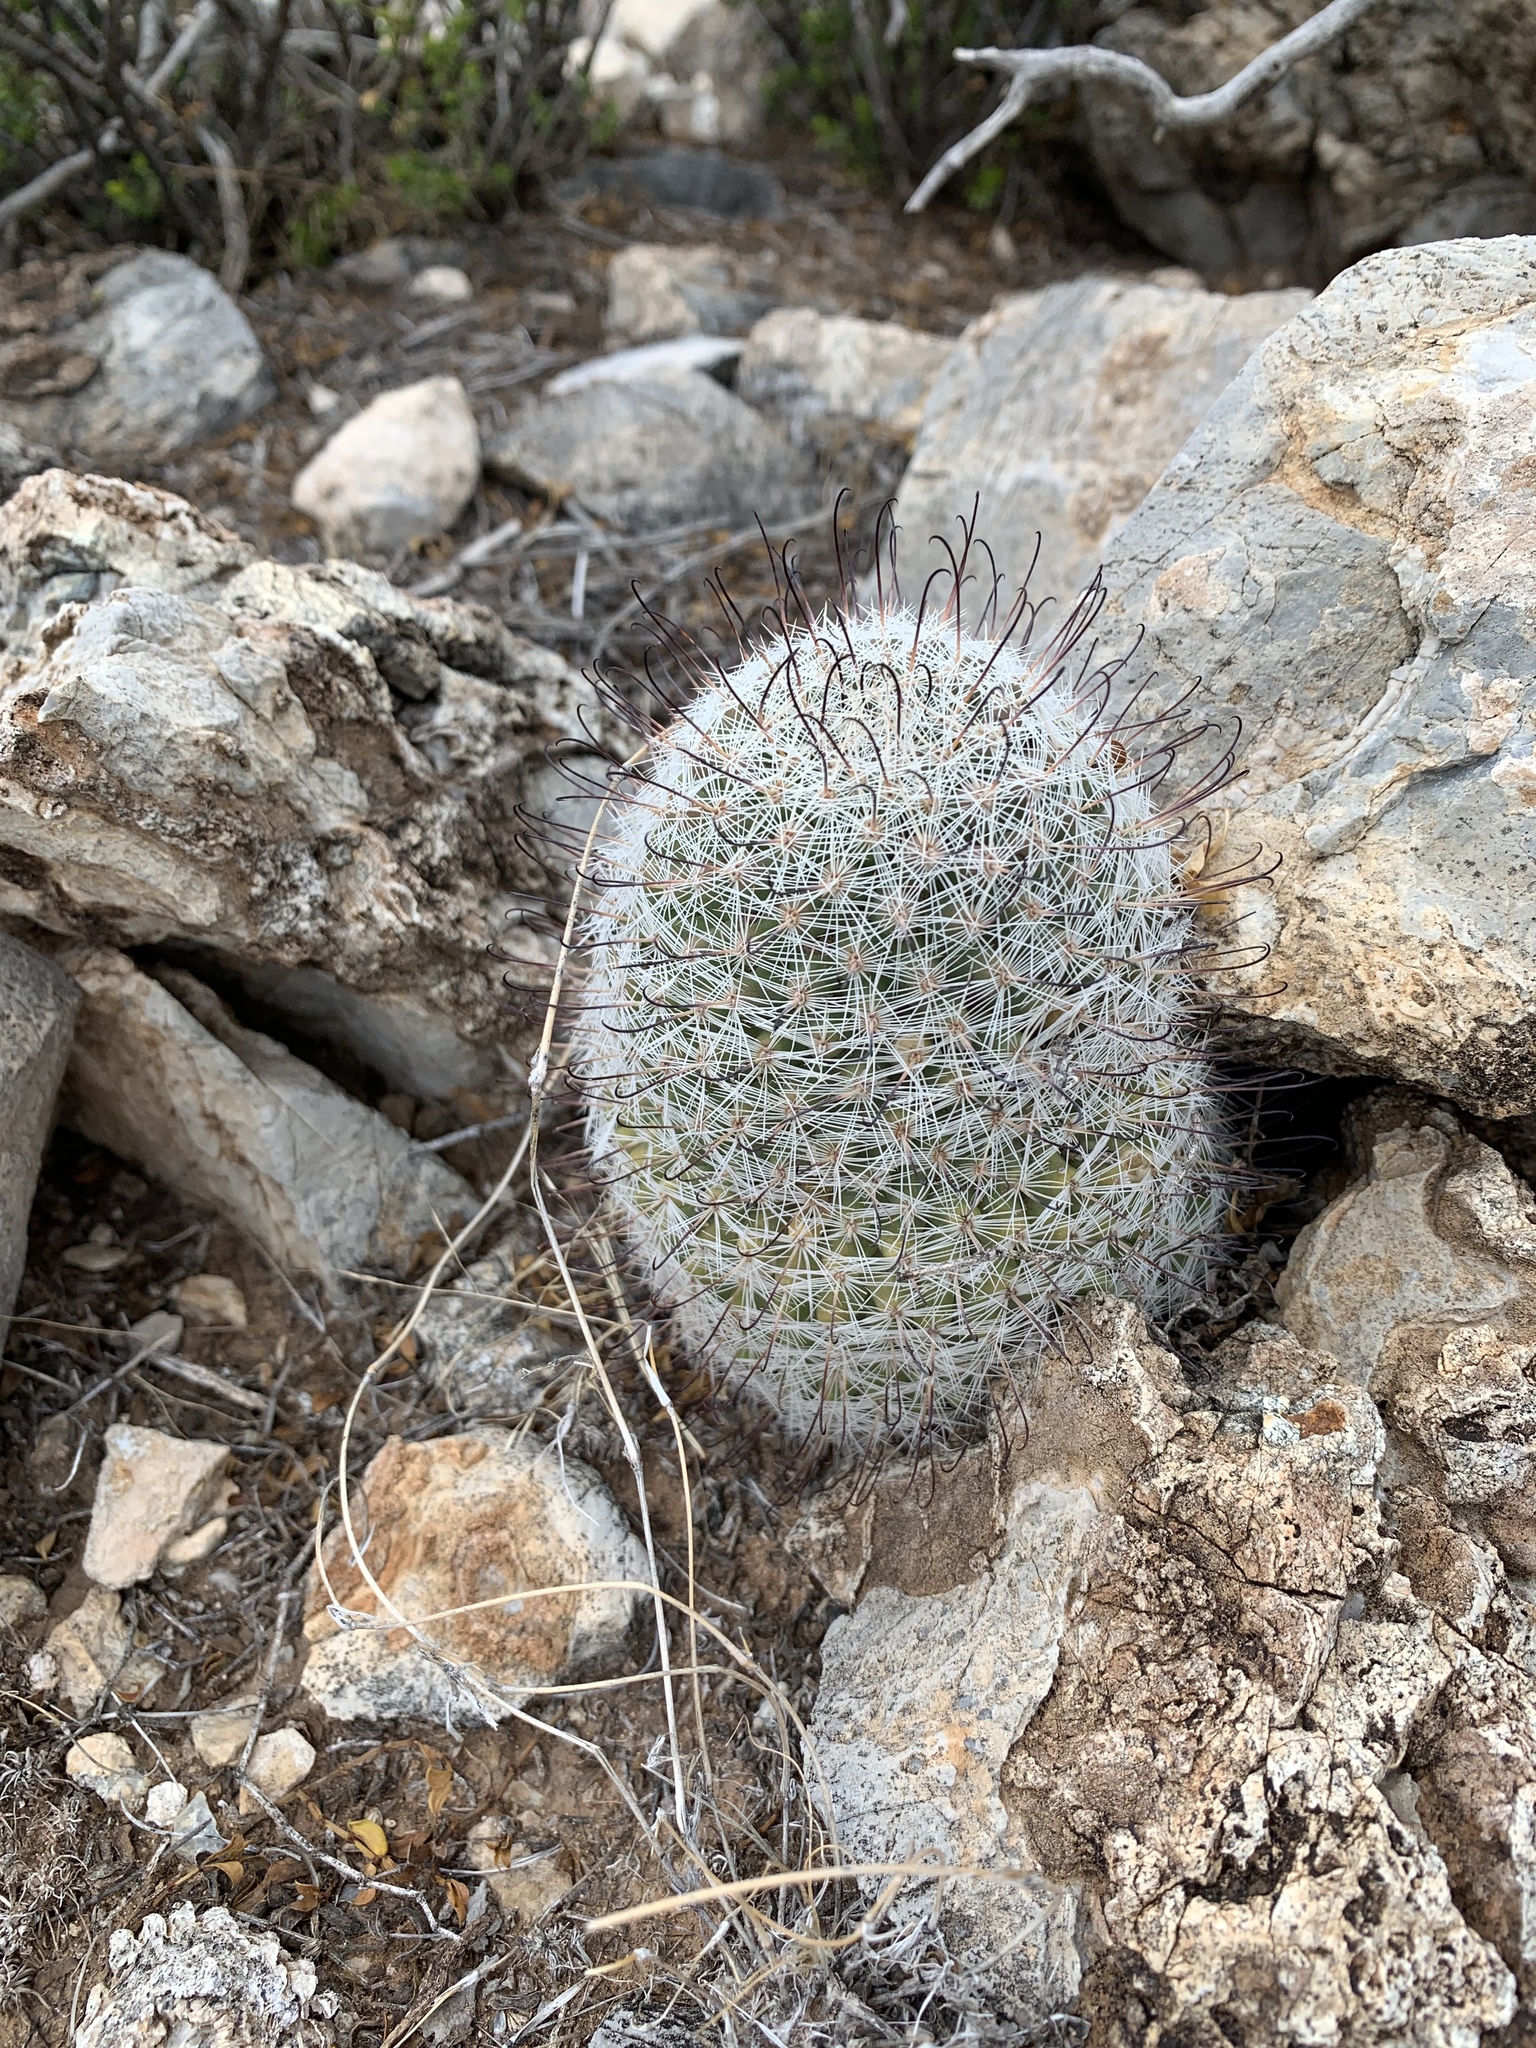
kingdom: Plantae
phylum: Tracheophyta
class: Magnoliopsida
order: Caryophyllales
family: Cactaceae
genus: Cochemiea
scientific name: Cochemiea grahamii
